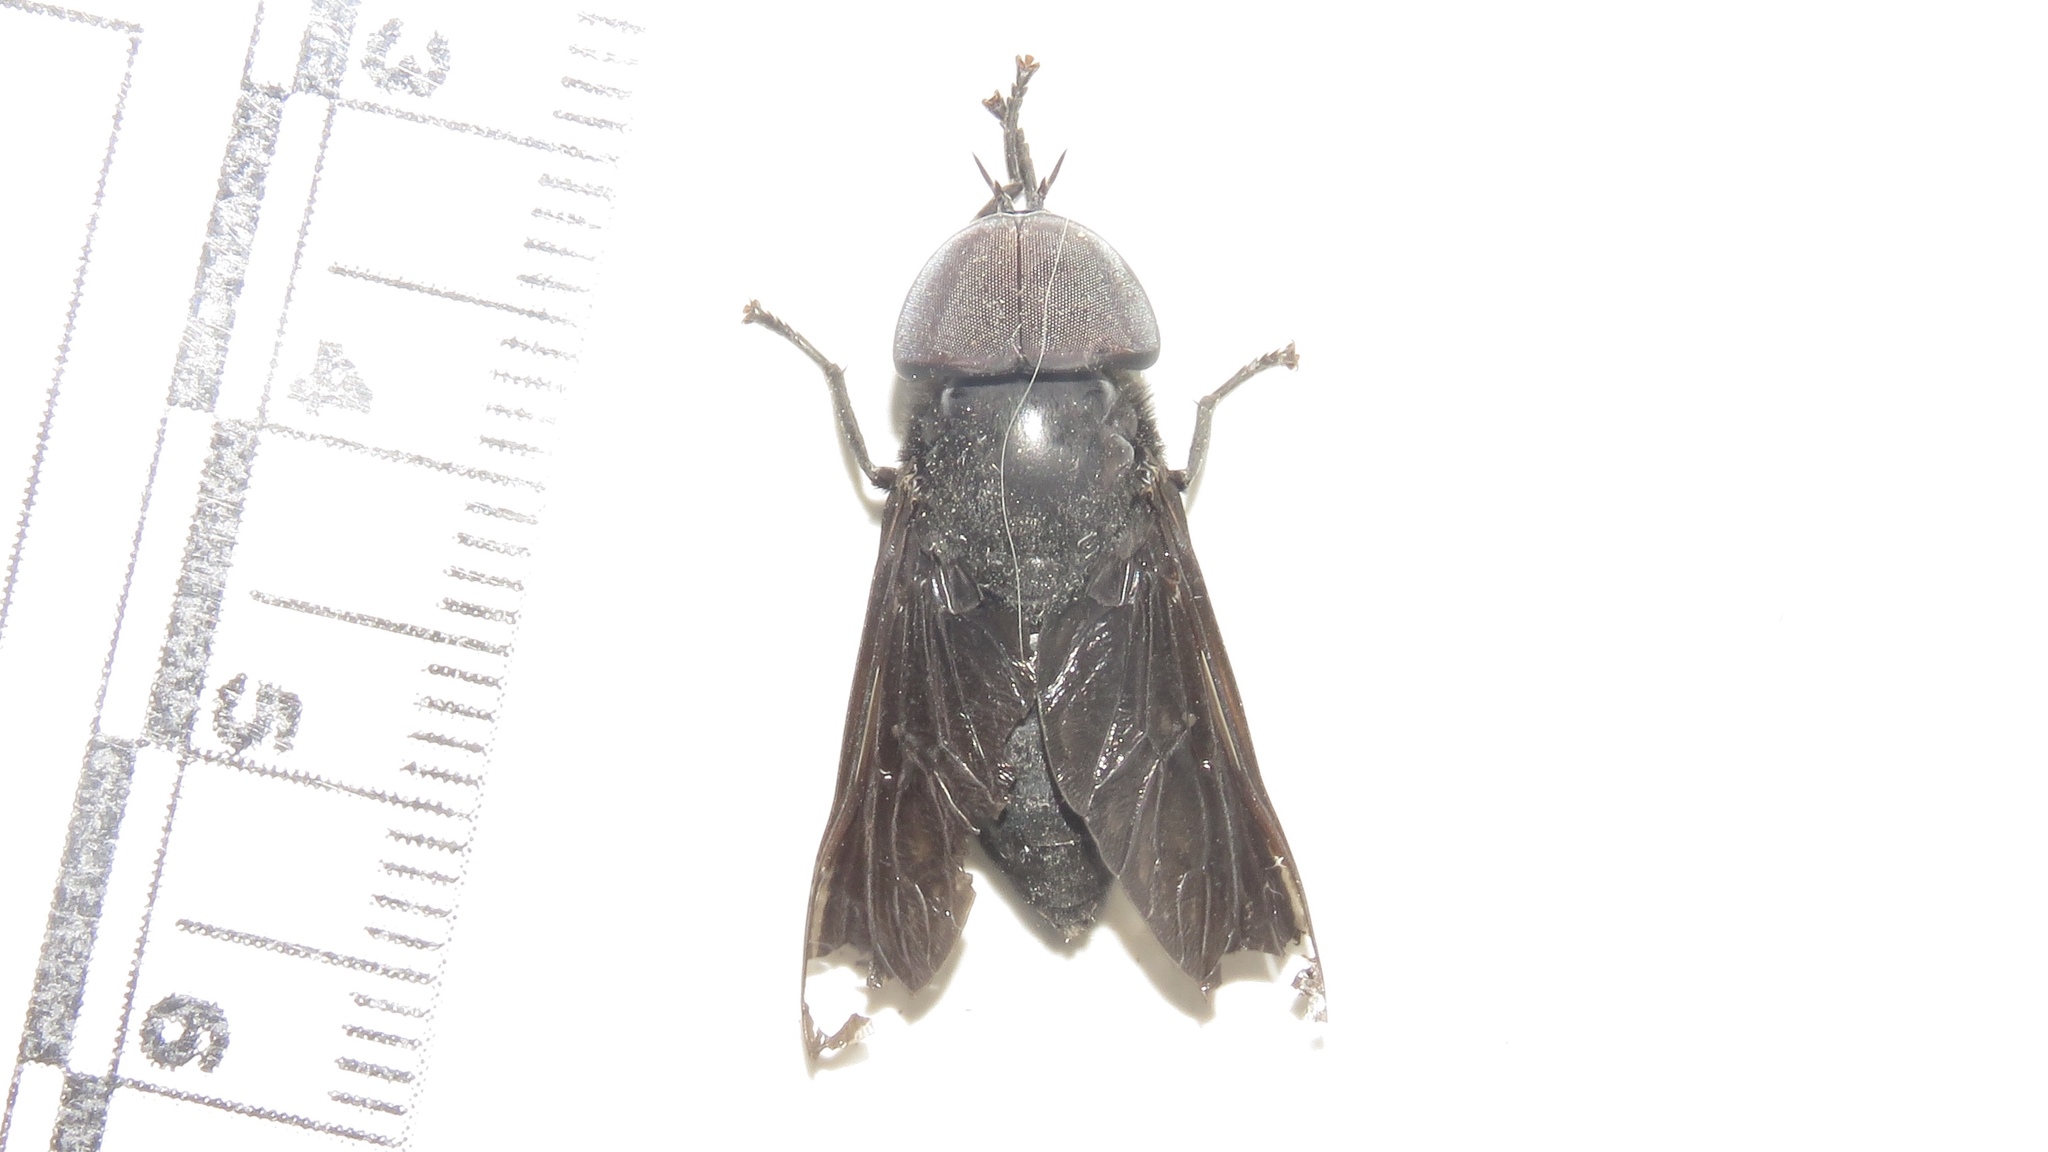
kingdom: Animalia
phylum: Arthropoda
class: Insecta
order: Diptera
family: Tabanidae
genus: Tabanus
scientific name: Tabanus atratus
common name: Black horse fly
